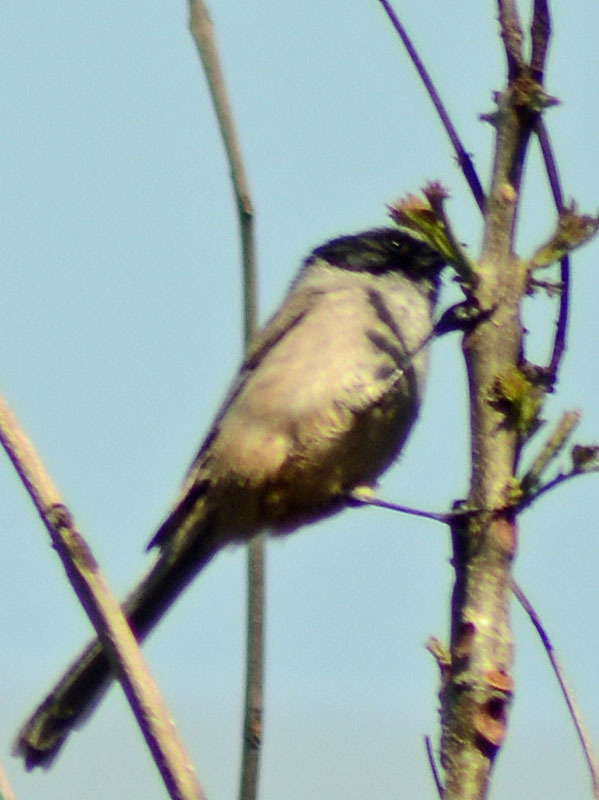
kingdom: Animalia
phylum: Chordata
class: Aves
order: Passeriformes
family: Aegithalidae
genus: Psaltriparus
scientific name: Psaltriparus minimus
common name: American bushtit
